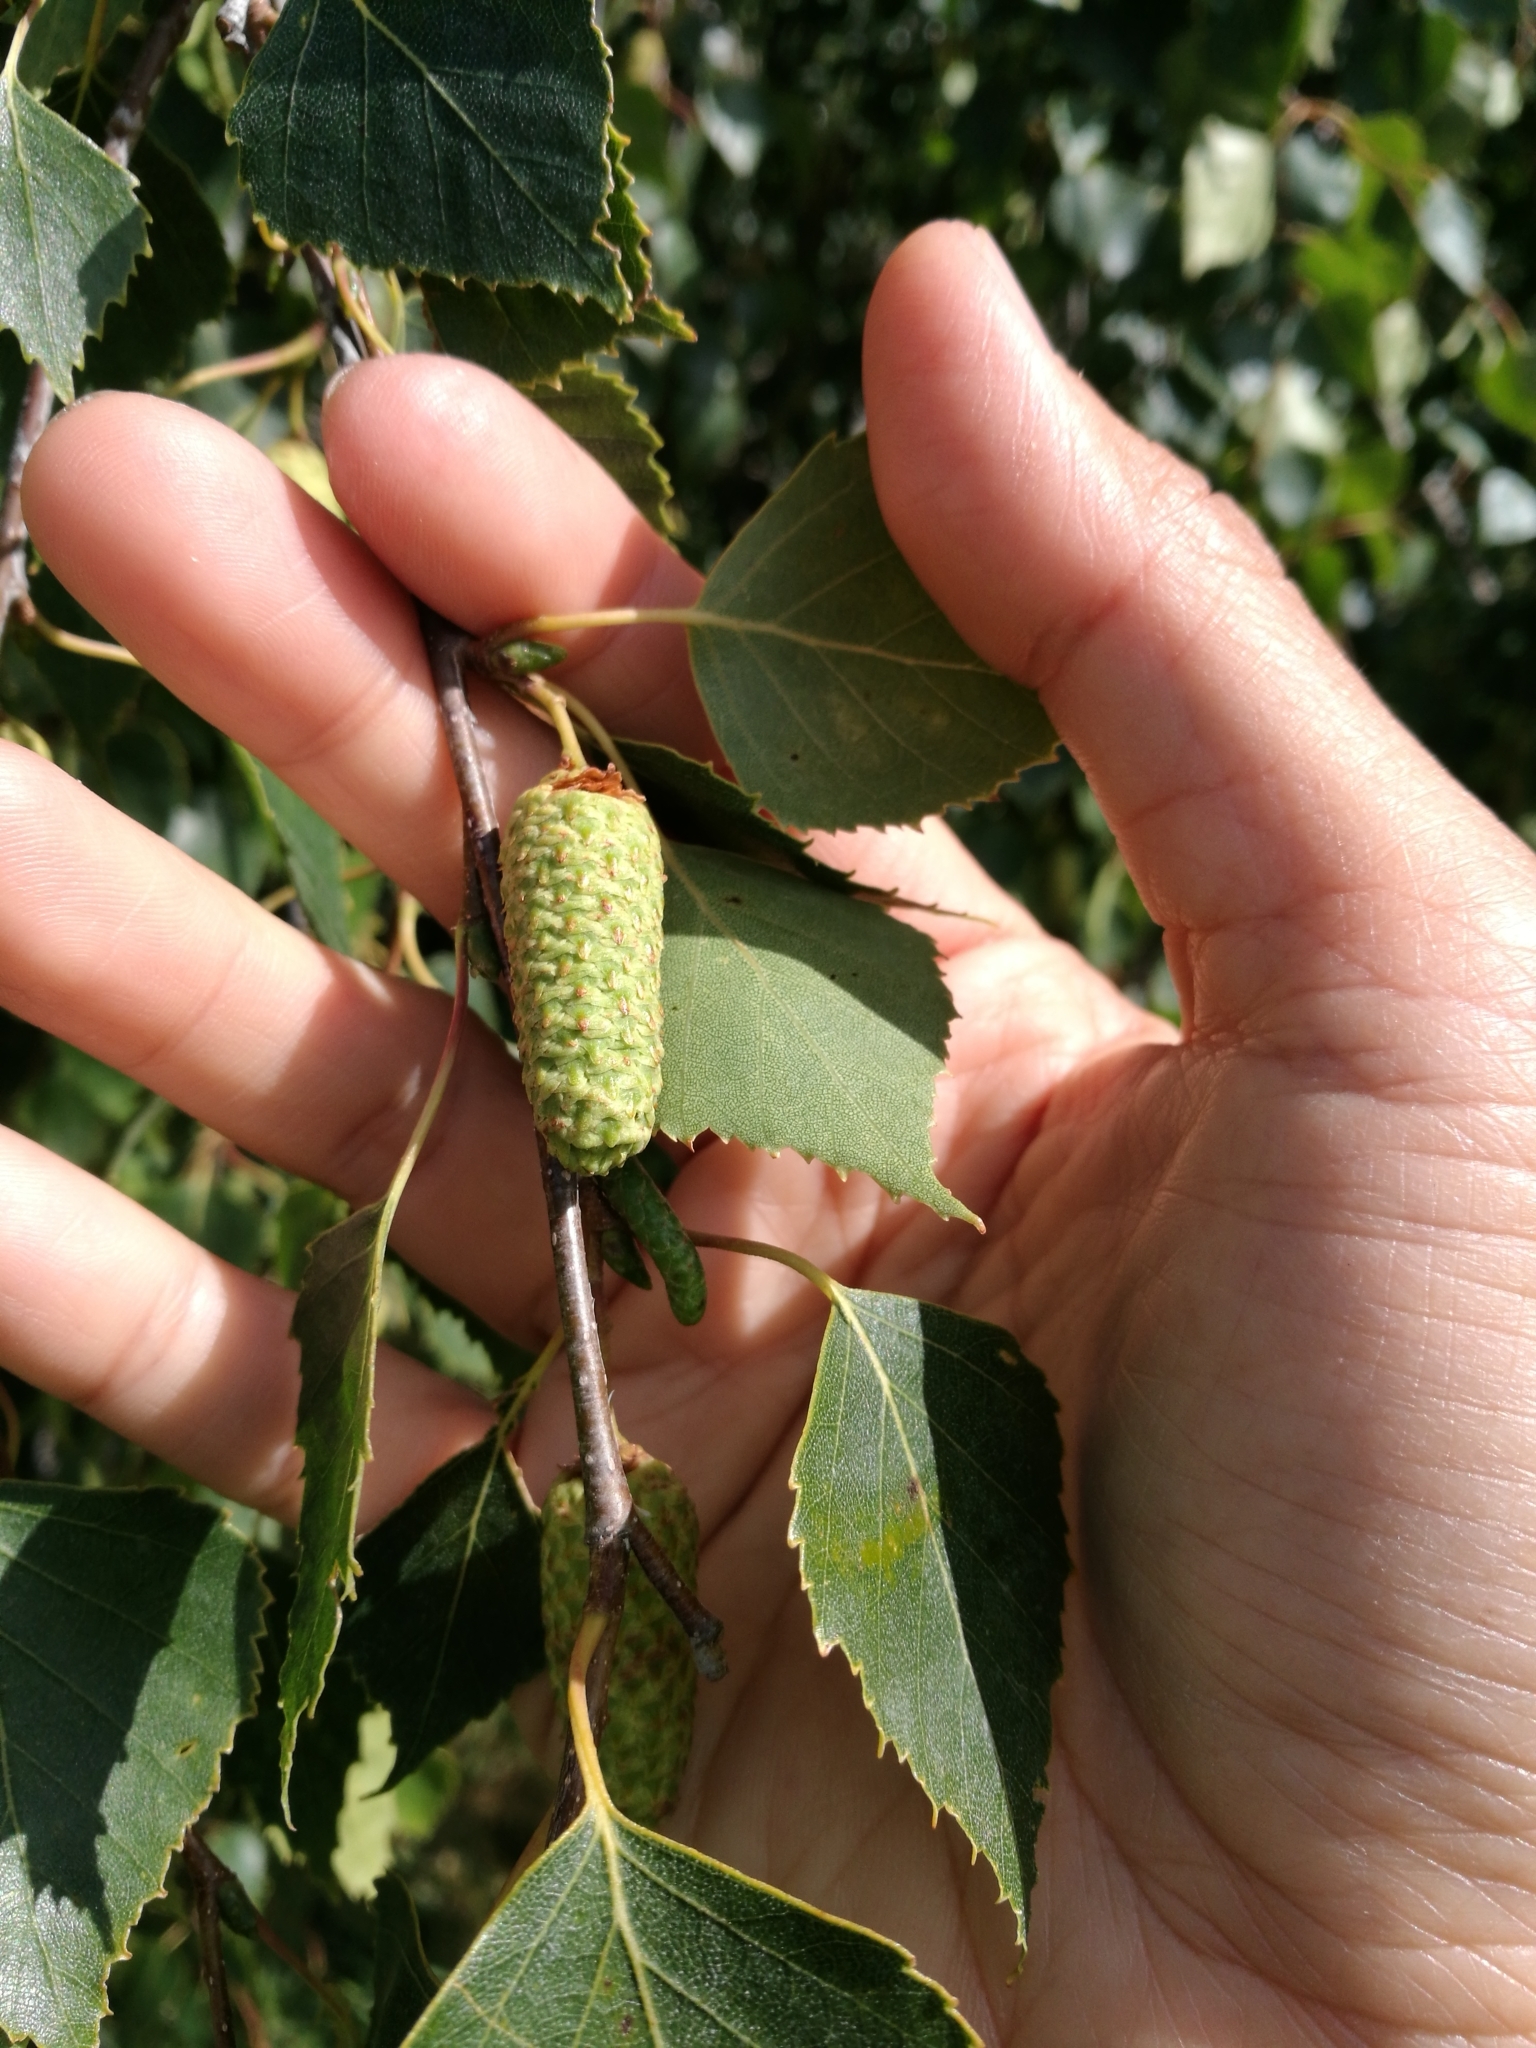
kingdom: Plantae
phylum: Tracheophyta
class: Magnoliopsida
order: Fagales
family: Betulaceae
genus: Betula
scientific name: Betula pendula
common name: Silver birch
